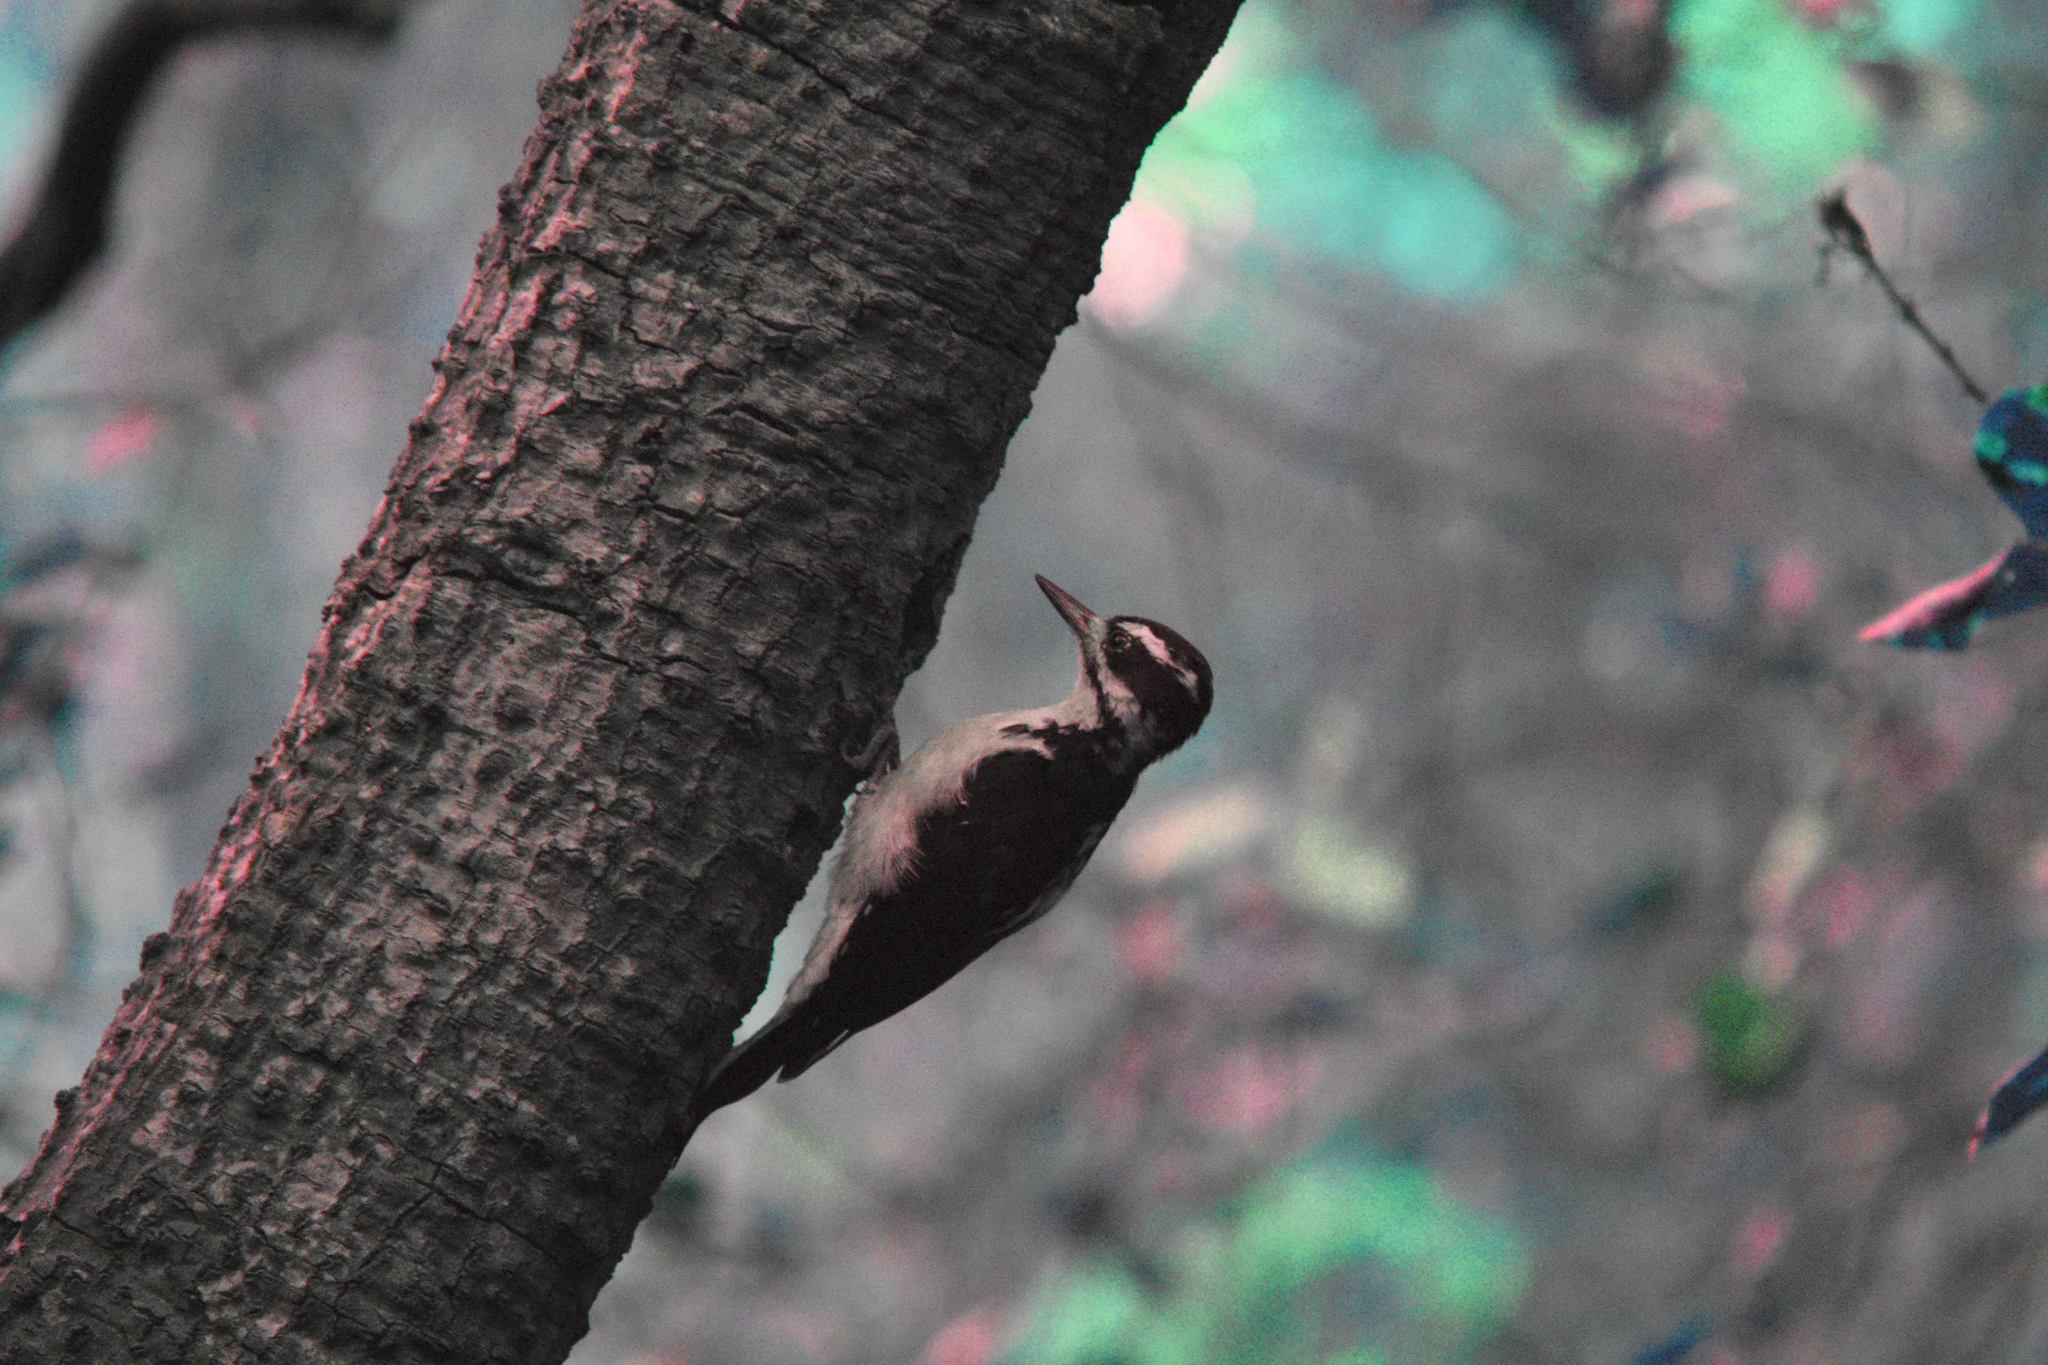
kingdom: Animalia
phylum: Chordata
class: Aves
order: Piciformes
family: Picidae
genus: Leuconotopicus
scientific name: Leuconotopicus villosus
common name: Hairy woodpecker
